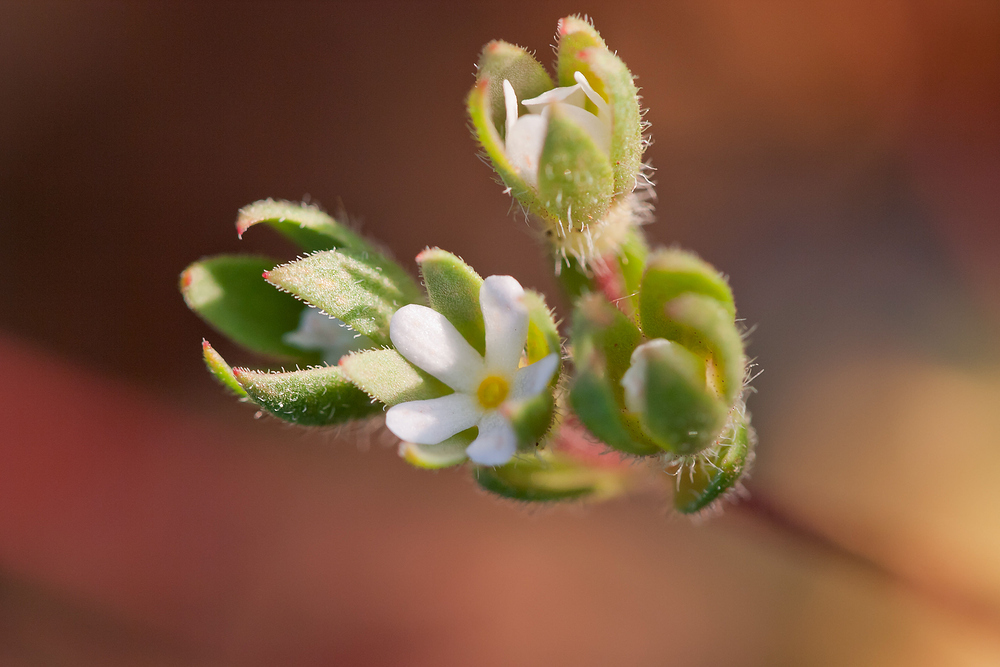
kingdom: Plantae
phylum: Tracheophyta
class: Magnoliopsida
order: Ericales
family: Primulaceae
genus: Androsace
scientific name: Androsace maxima
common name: Annual androsace
